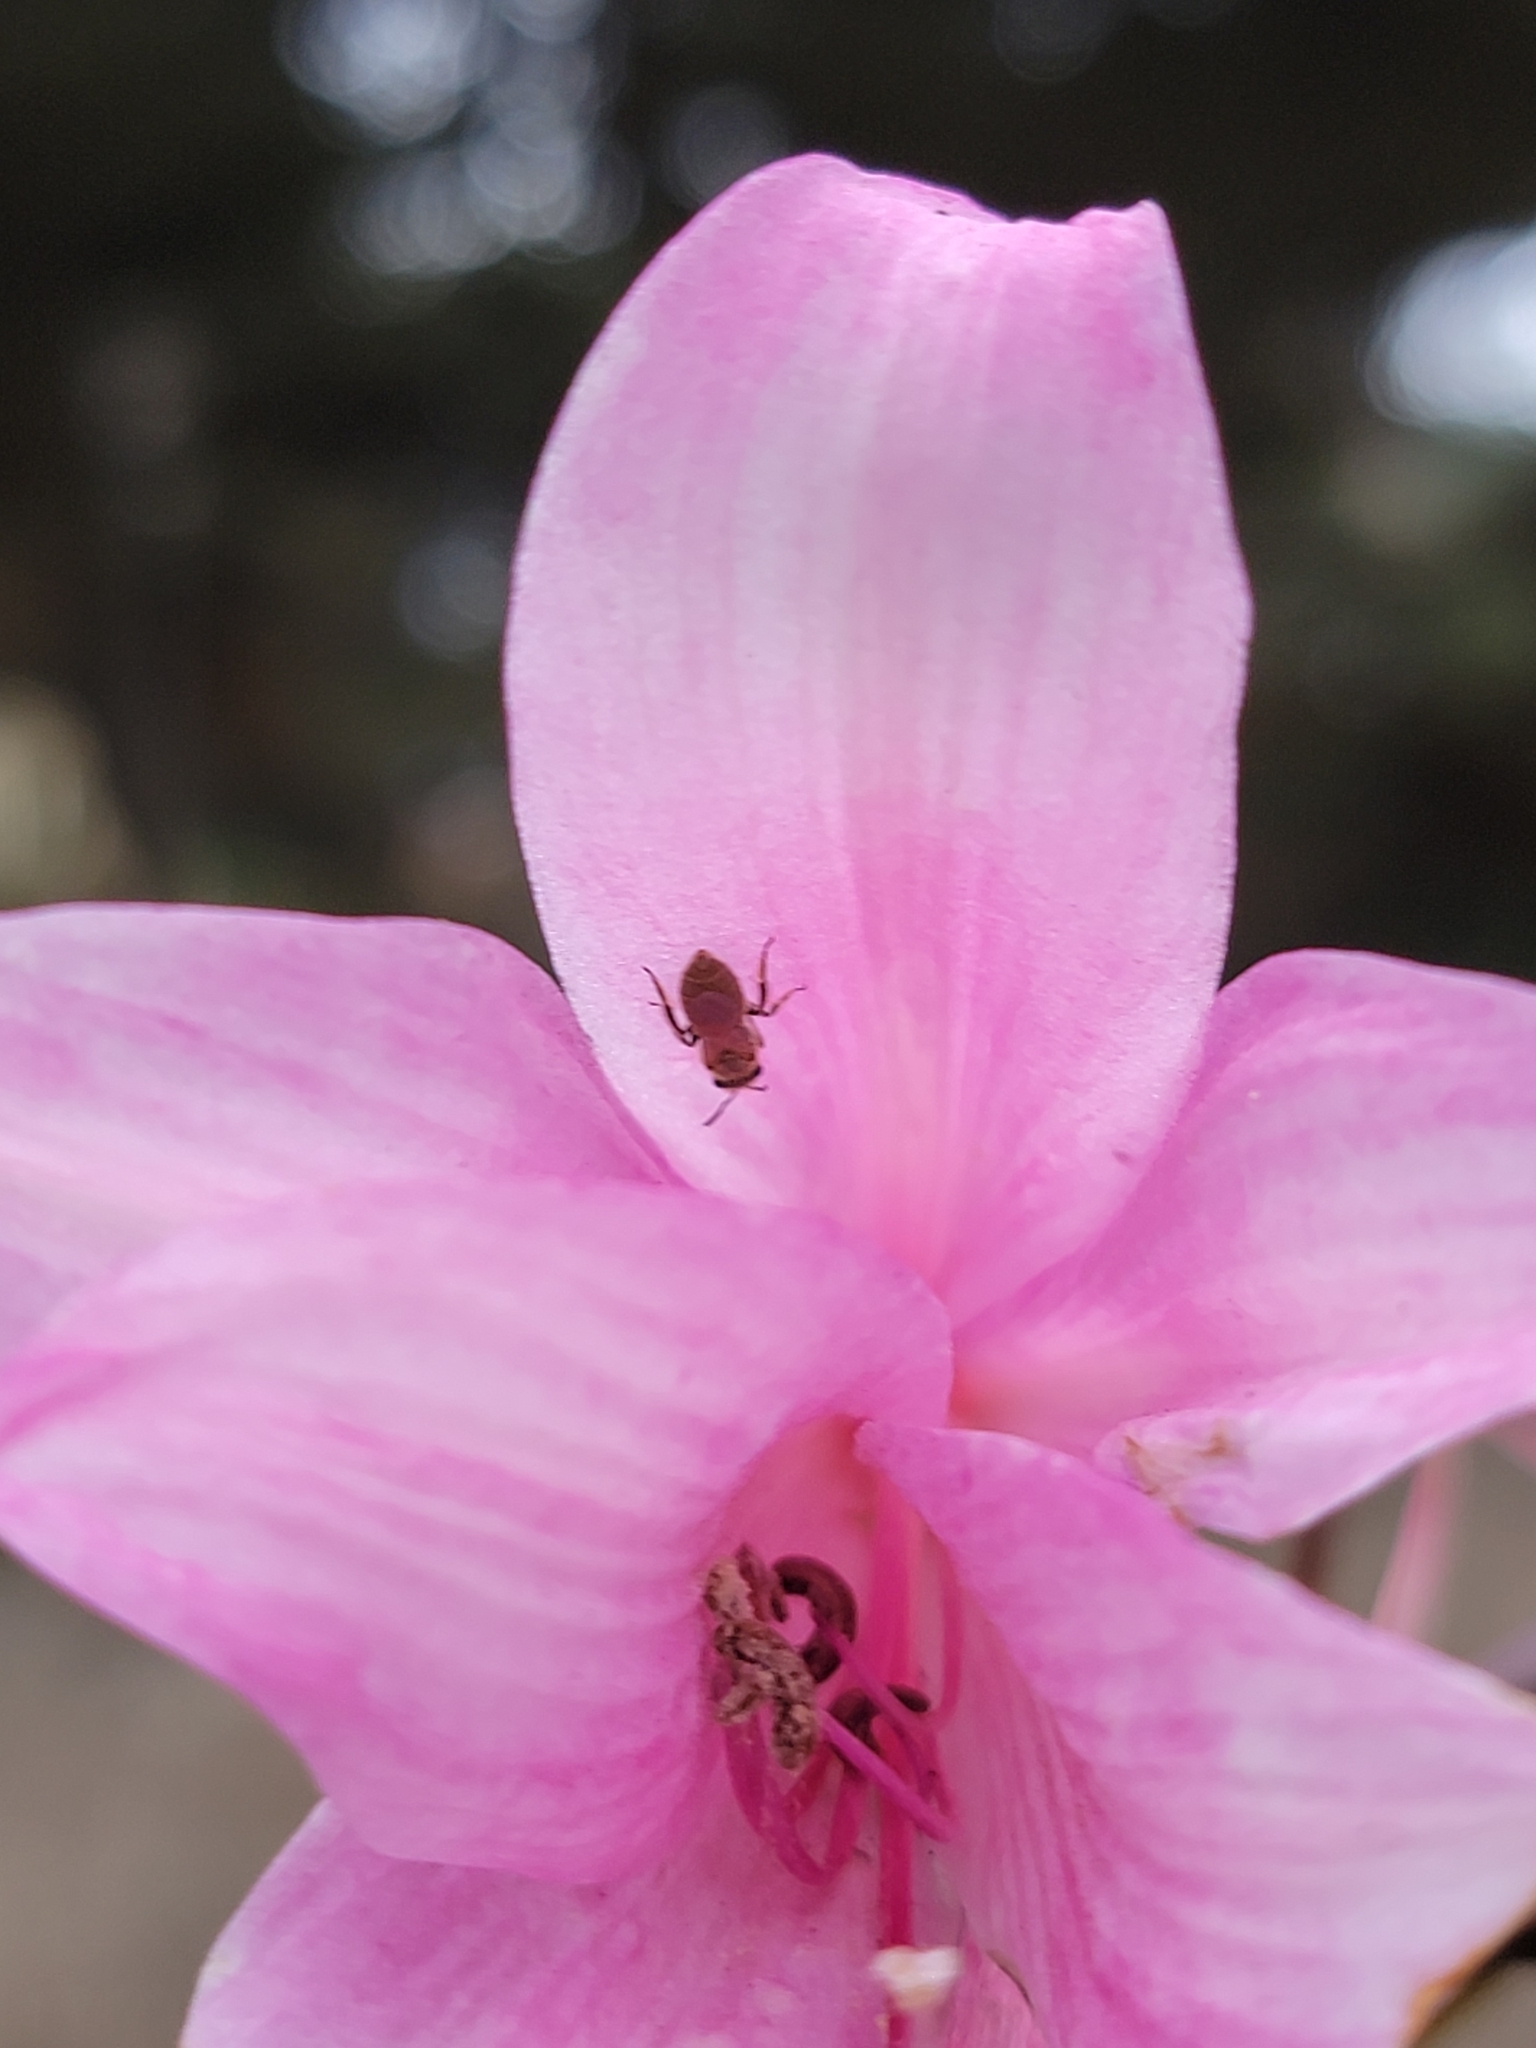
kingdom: Plantae
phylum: Tracheophyta
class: Liliopsida
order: Asparagales
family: Amaryllidaceae
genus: Amaryllis
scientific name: Amaryllis belladonna
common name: Jersey lily
